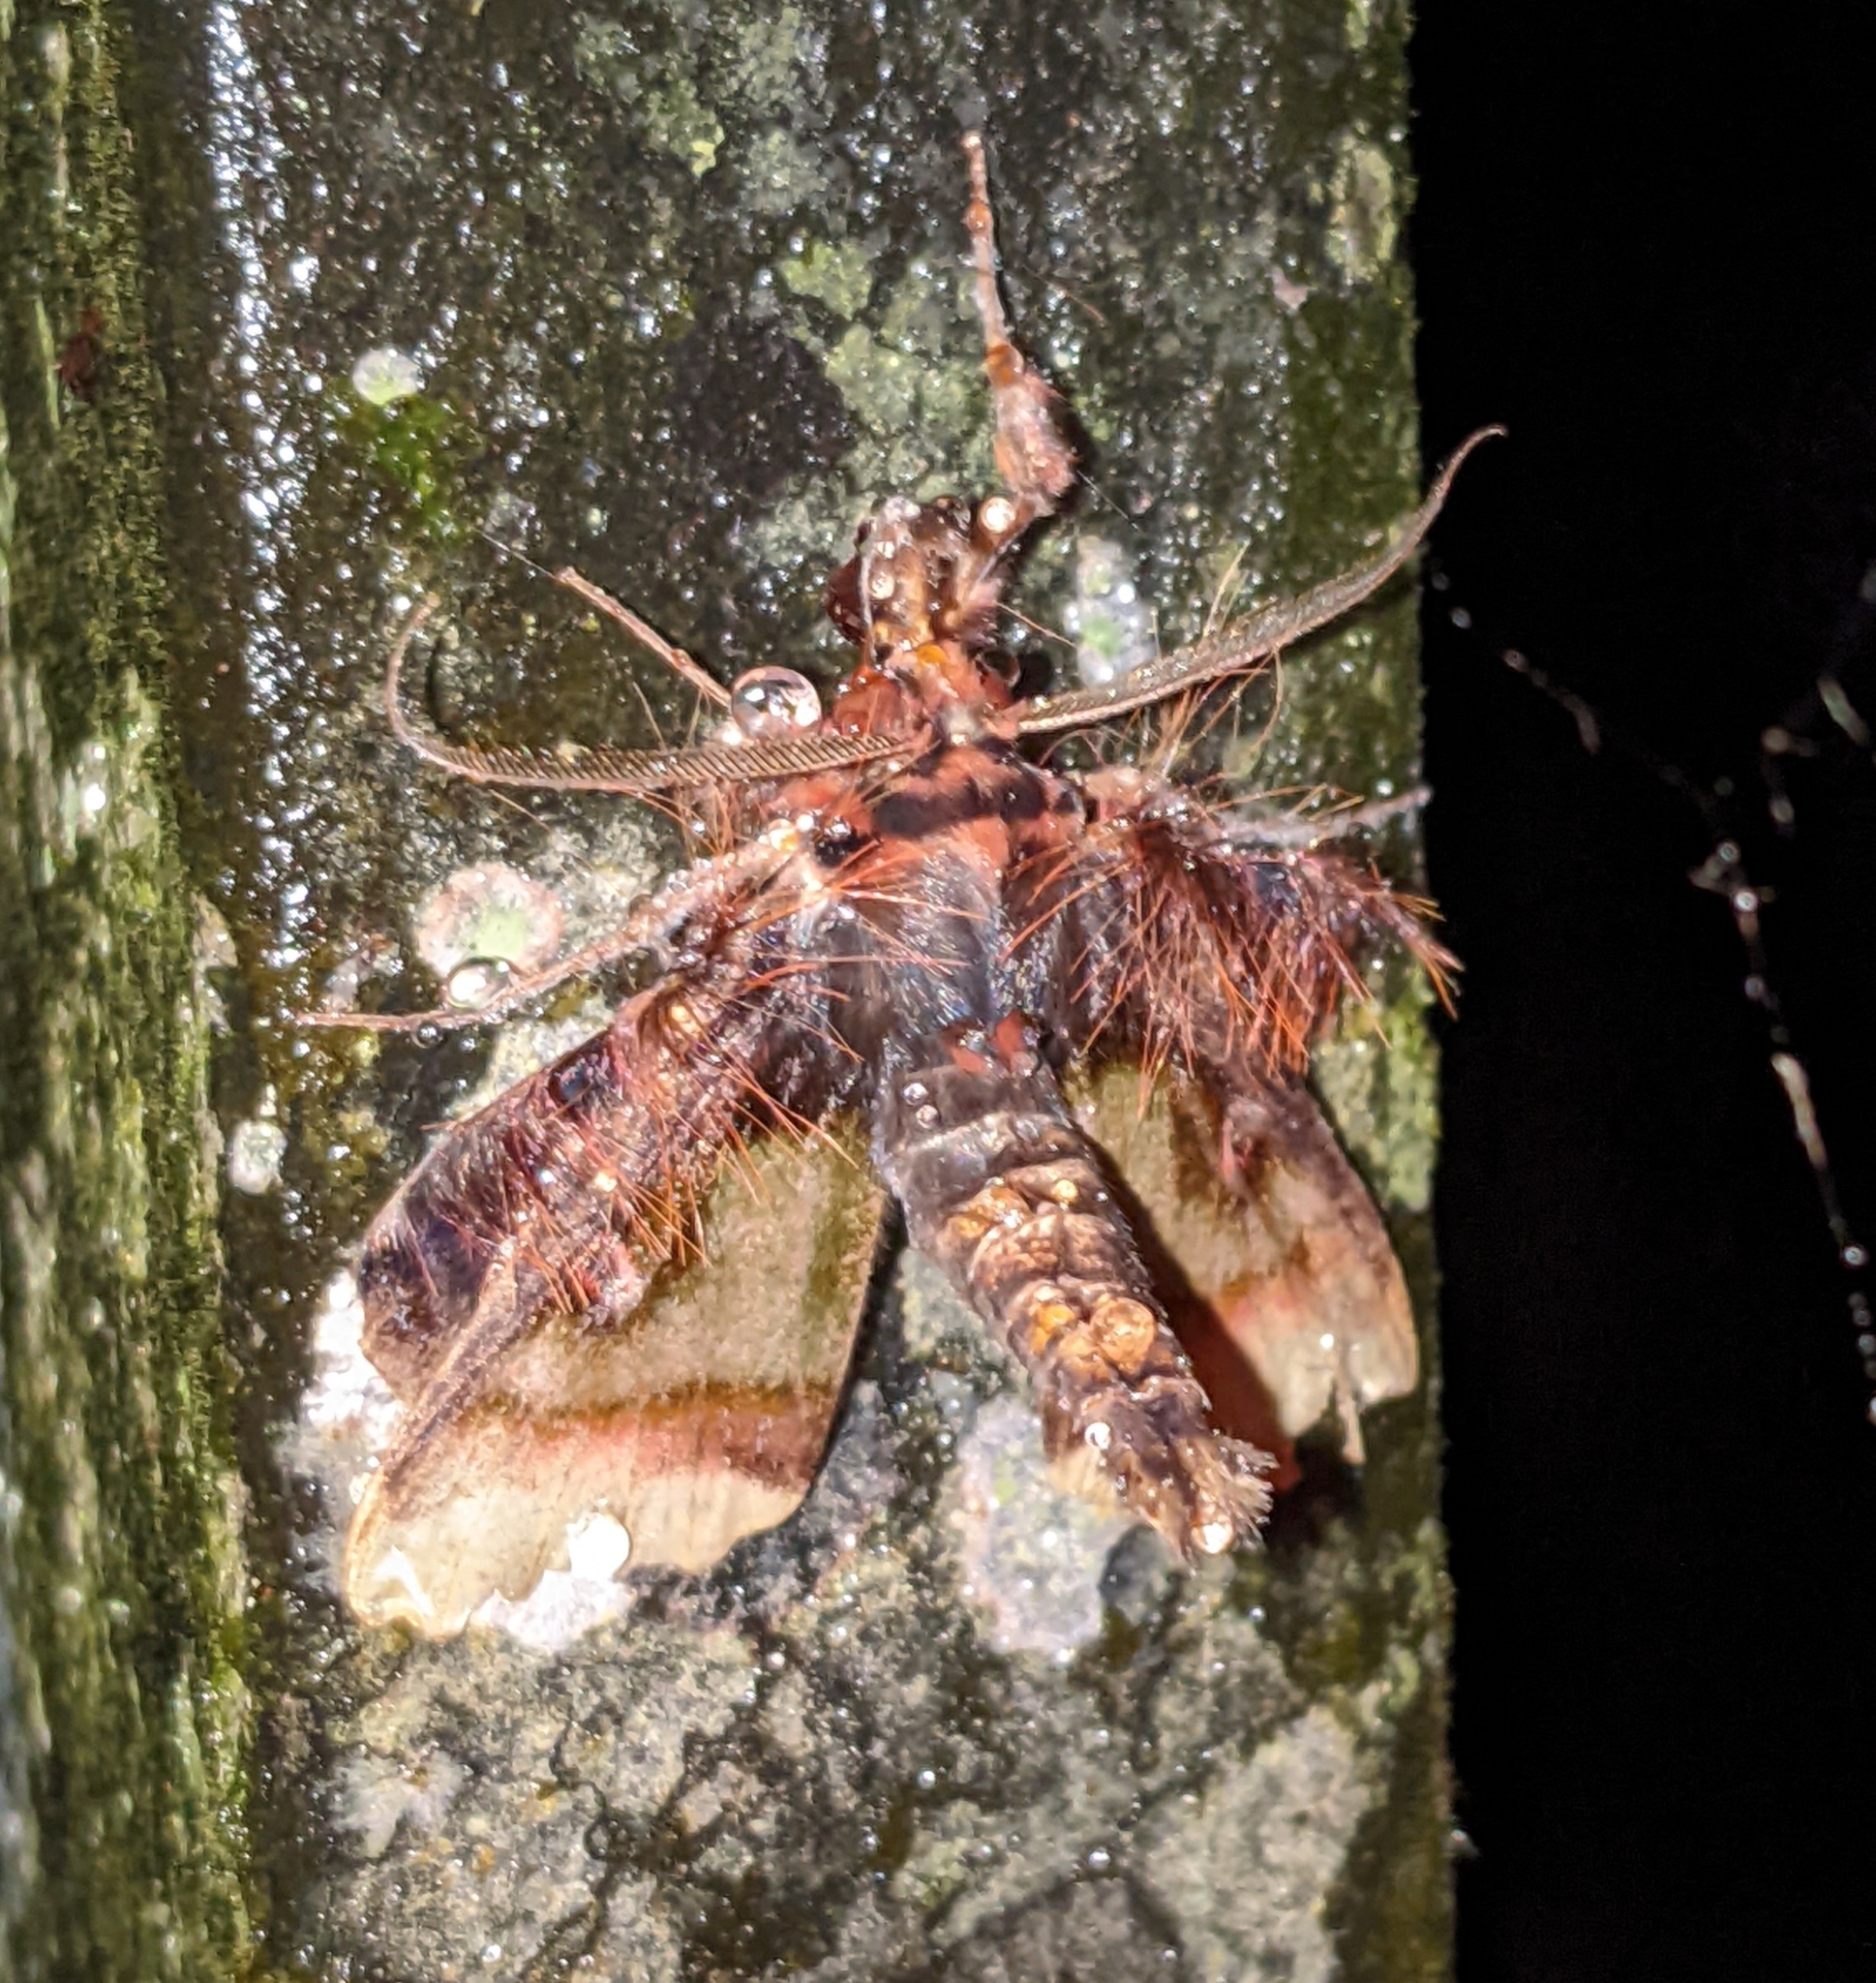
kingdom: Animalia
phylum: Arthropoda
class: Insecta
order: Lepidoptera
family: Erebidae
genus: Ceroctena
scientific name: Ceroctena amynta
